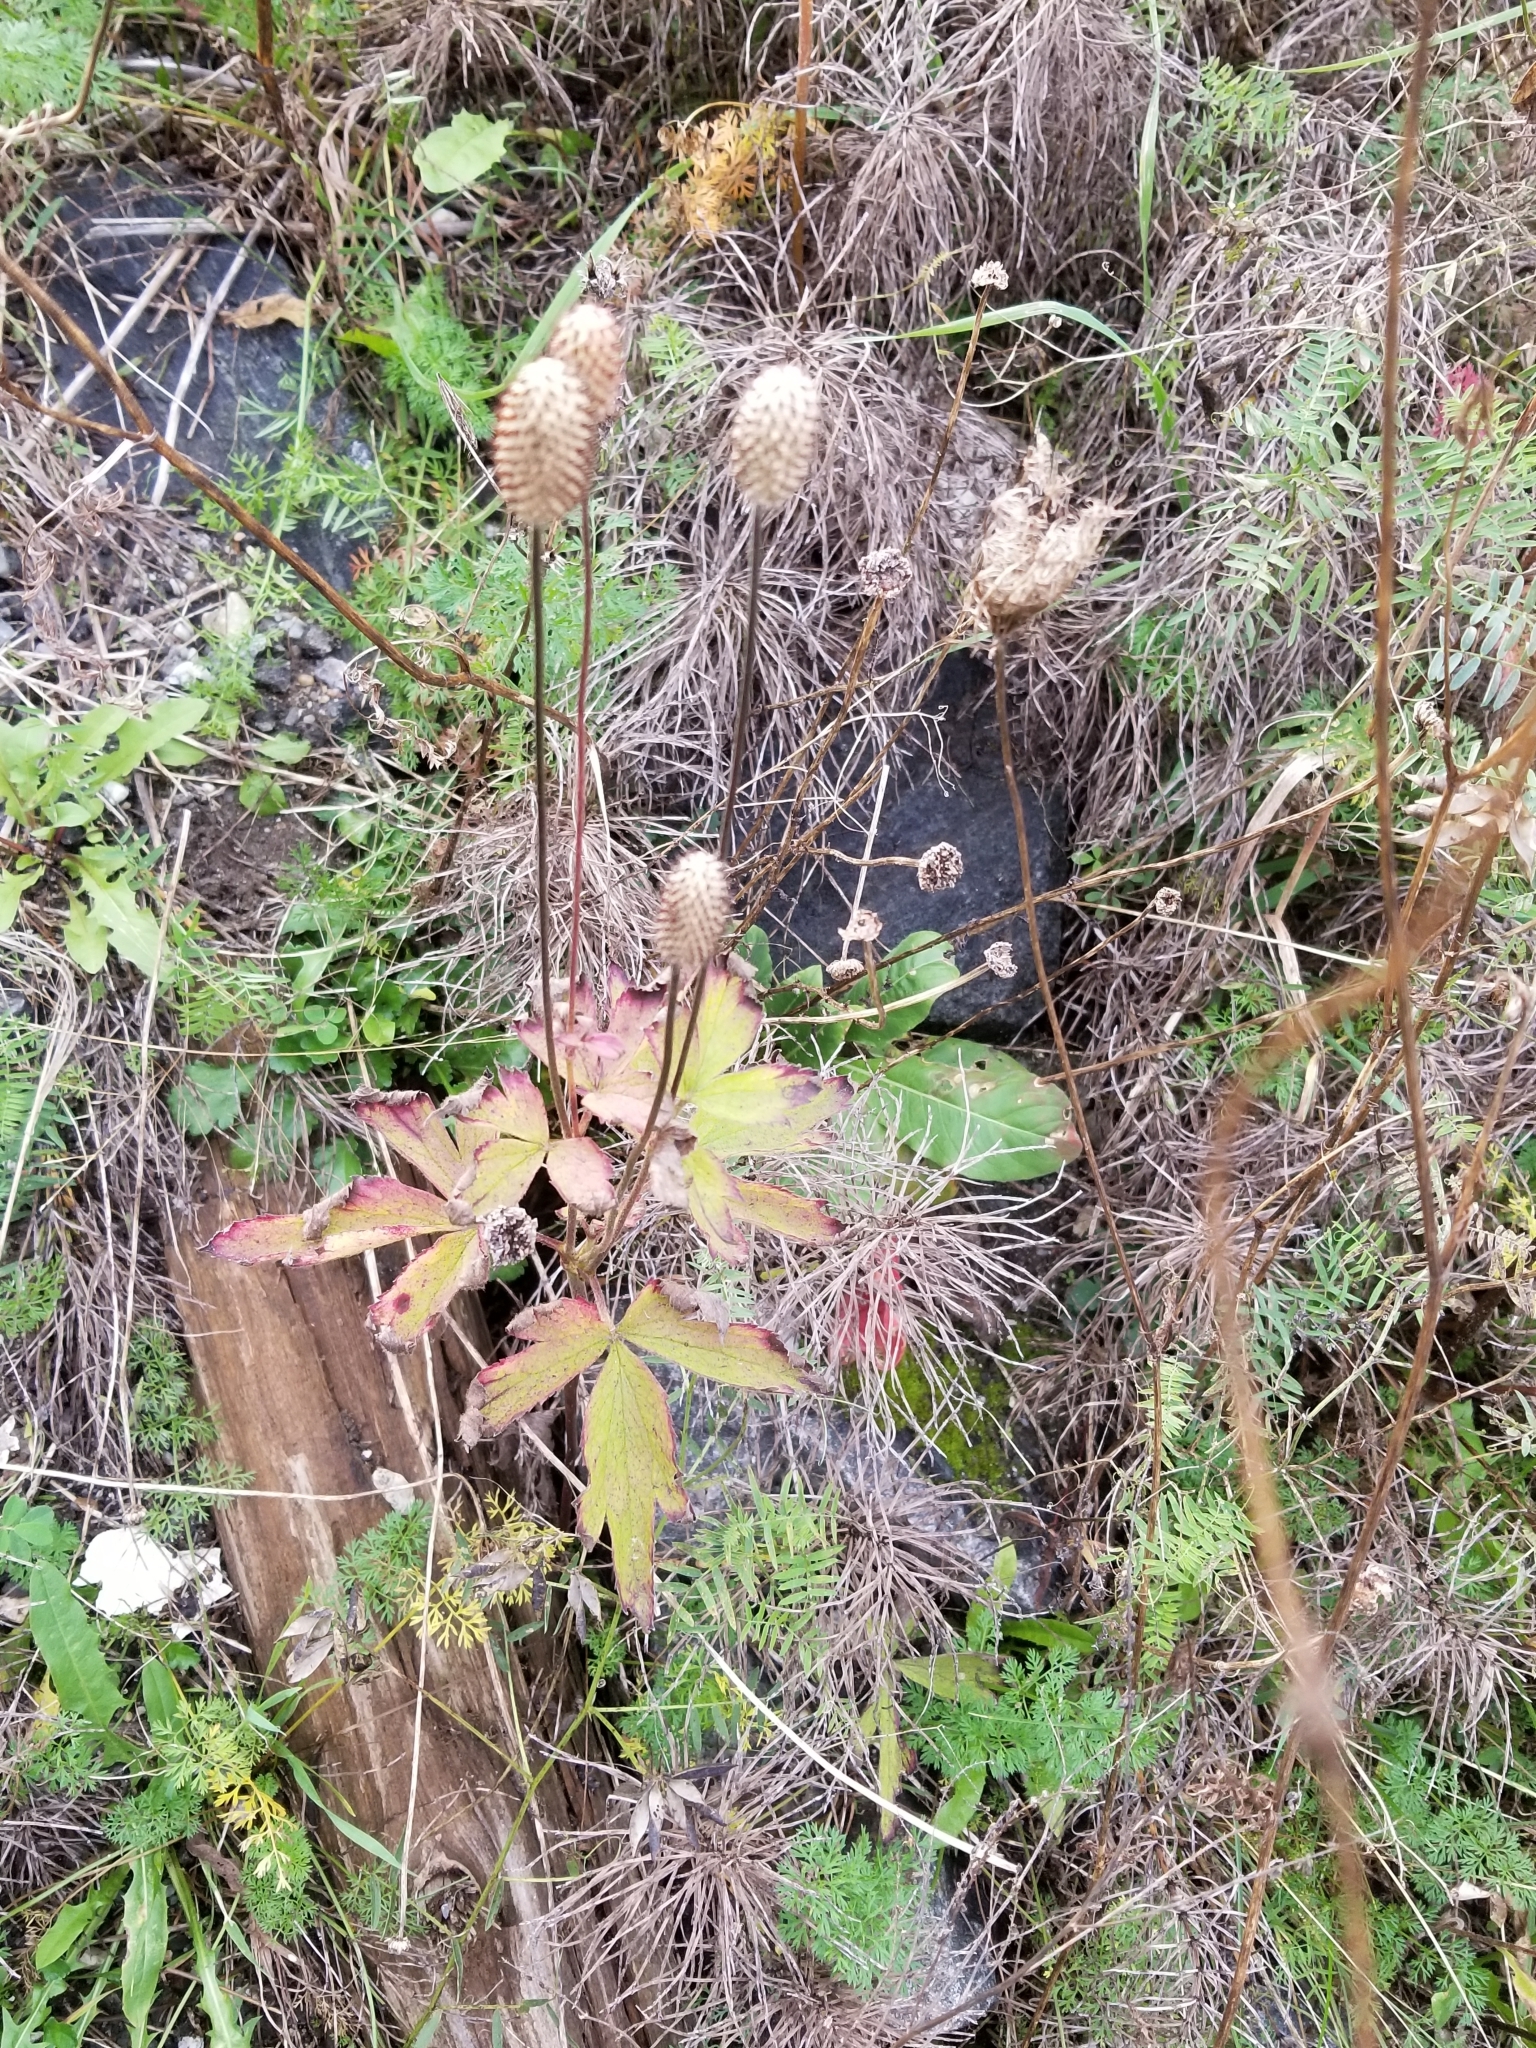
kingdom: Plantae
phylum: Tracheophyta
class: Magnoliopsida
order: Ranunculales
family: Ranunculaceae
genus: Anemone
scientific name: Anemone virginiana
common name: Tall anemone
